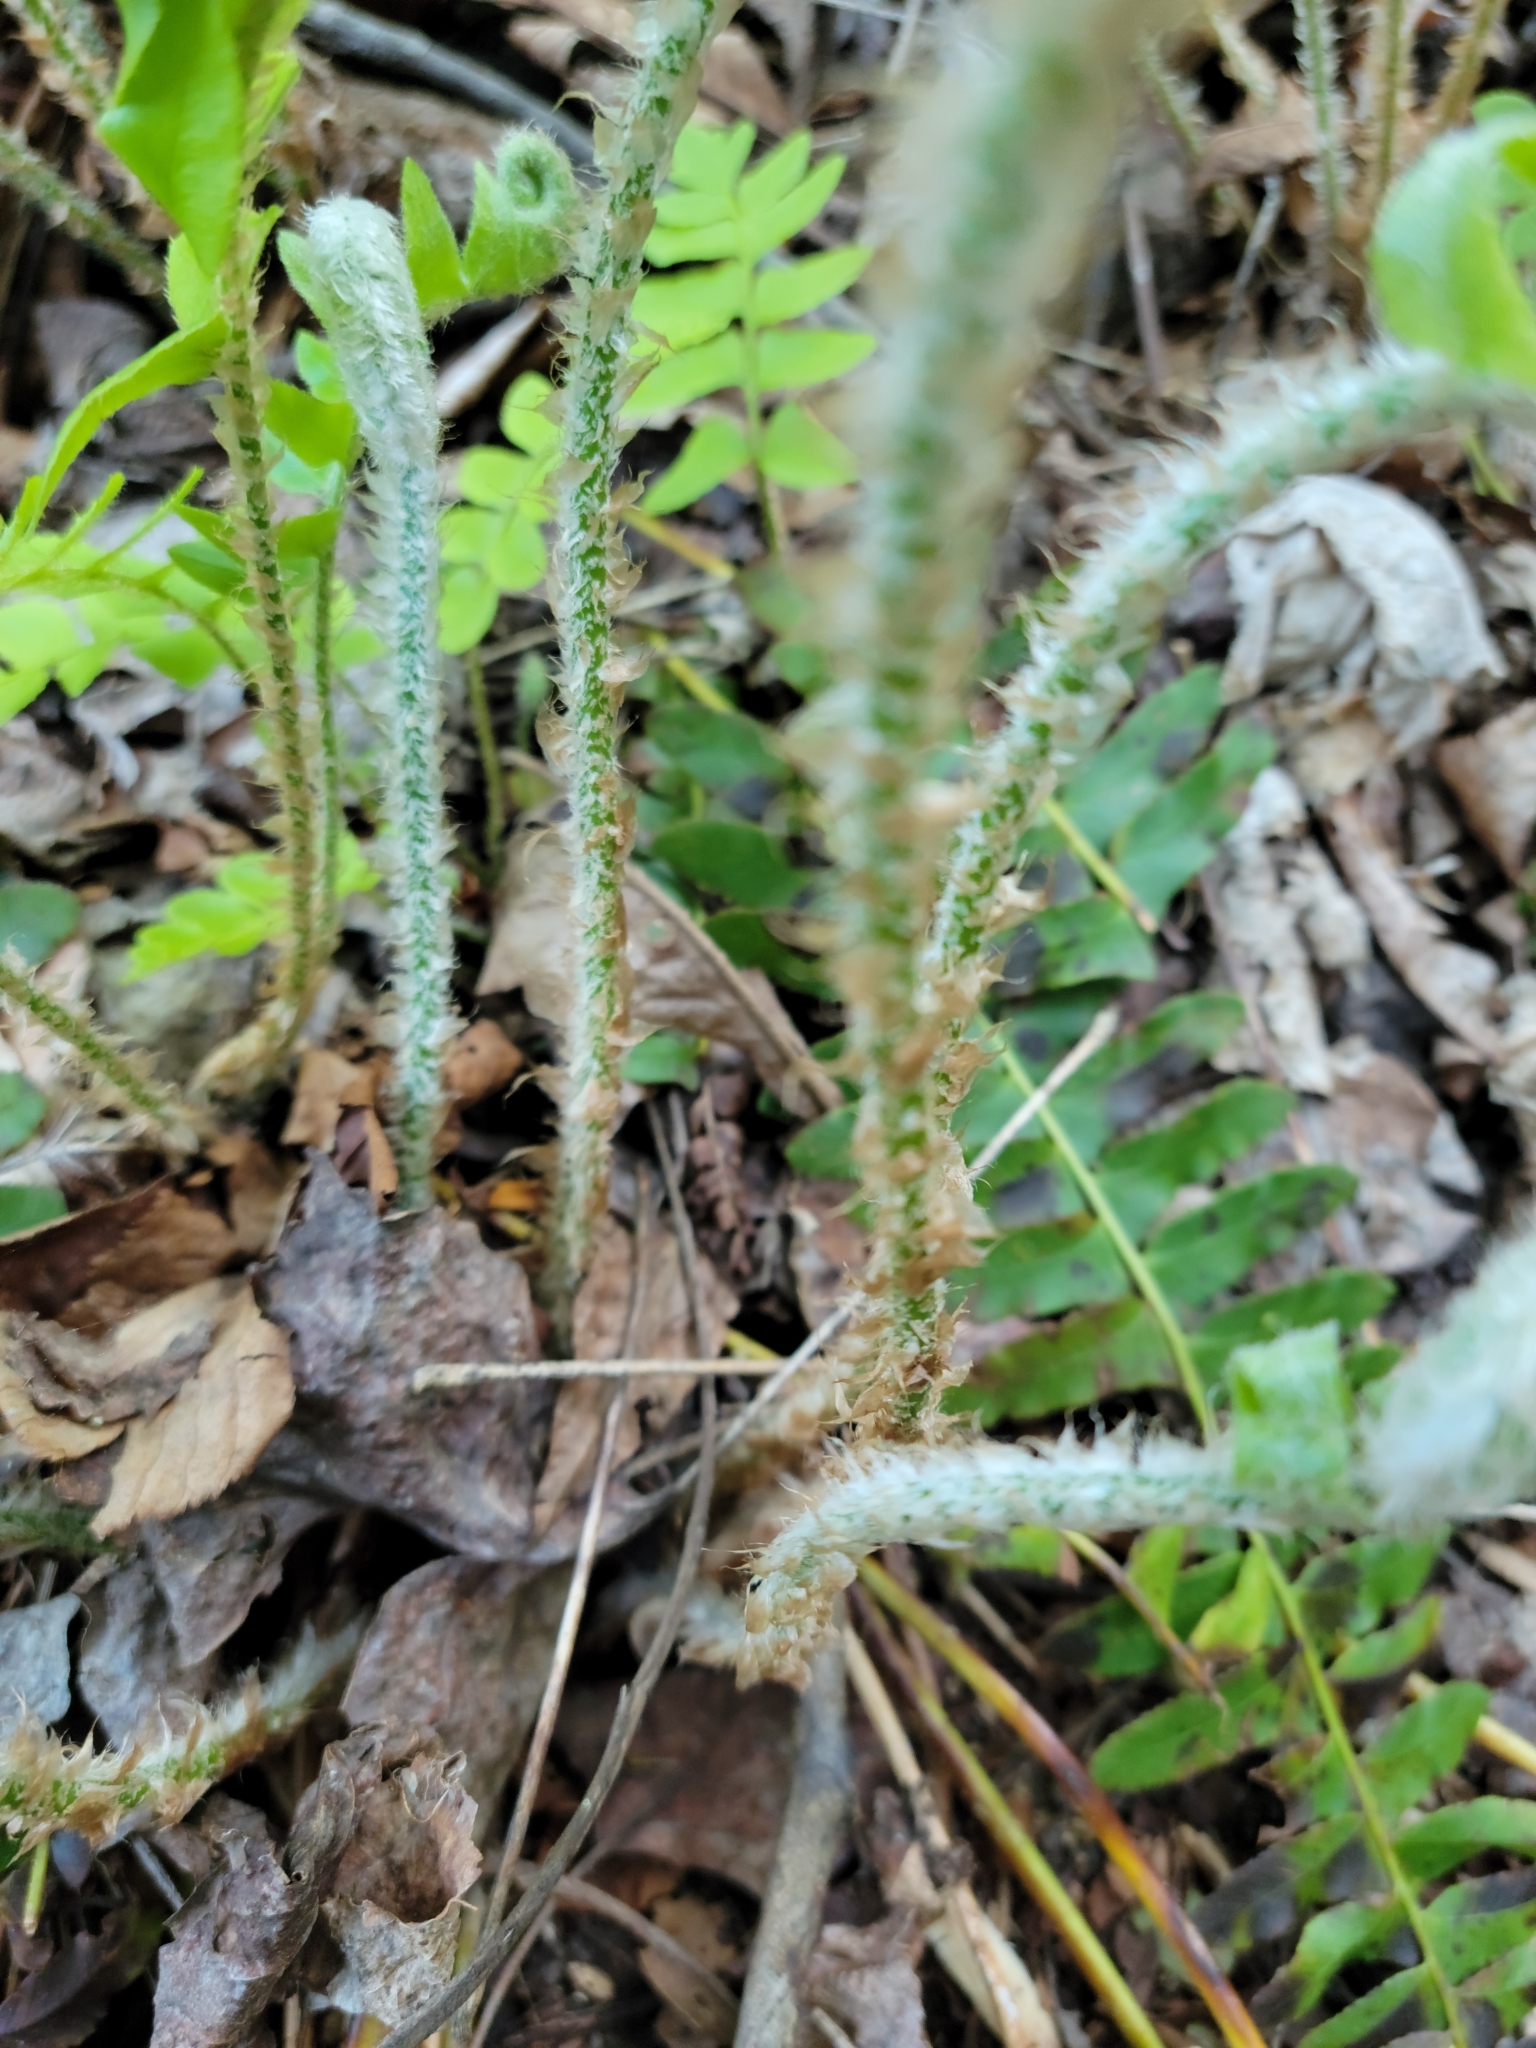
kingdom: Plantae
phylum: Tracheophyta
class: Polypodiopsida
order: Polypodiales
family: Dryopteridaceae
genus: Polystichum
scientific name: Polystichum acrostichoides
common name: Christmas fern
